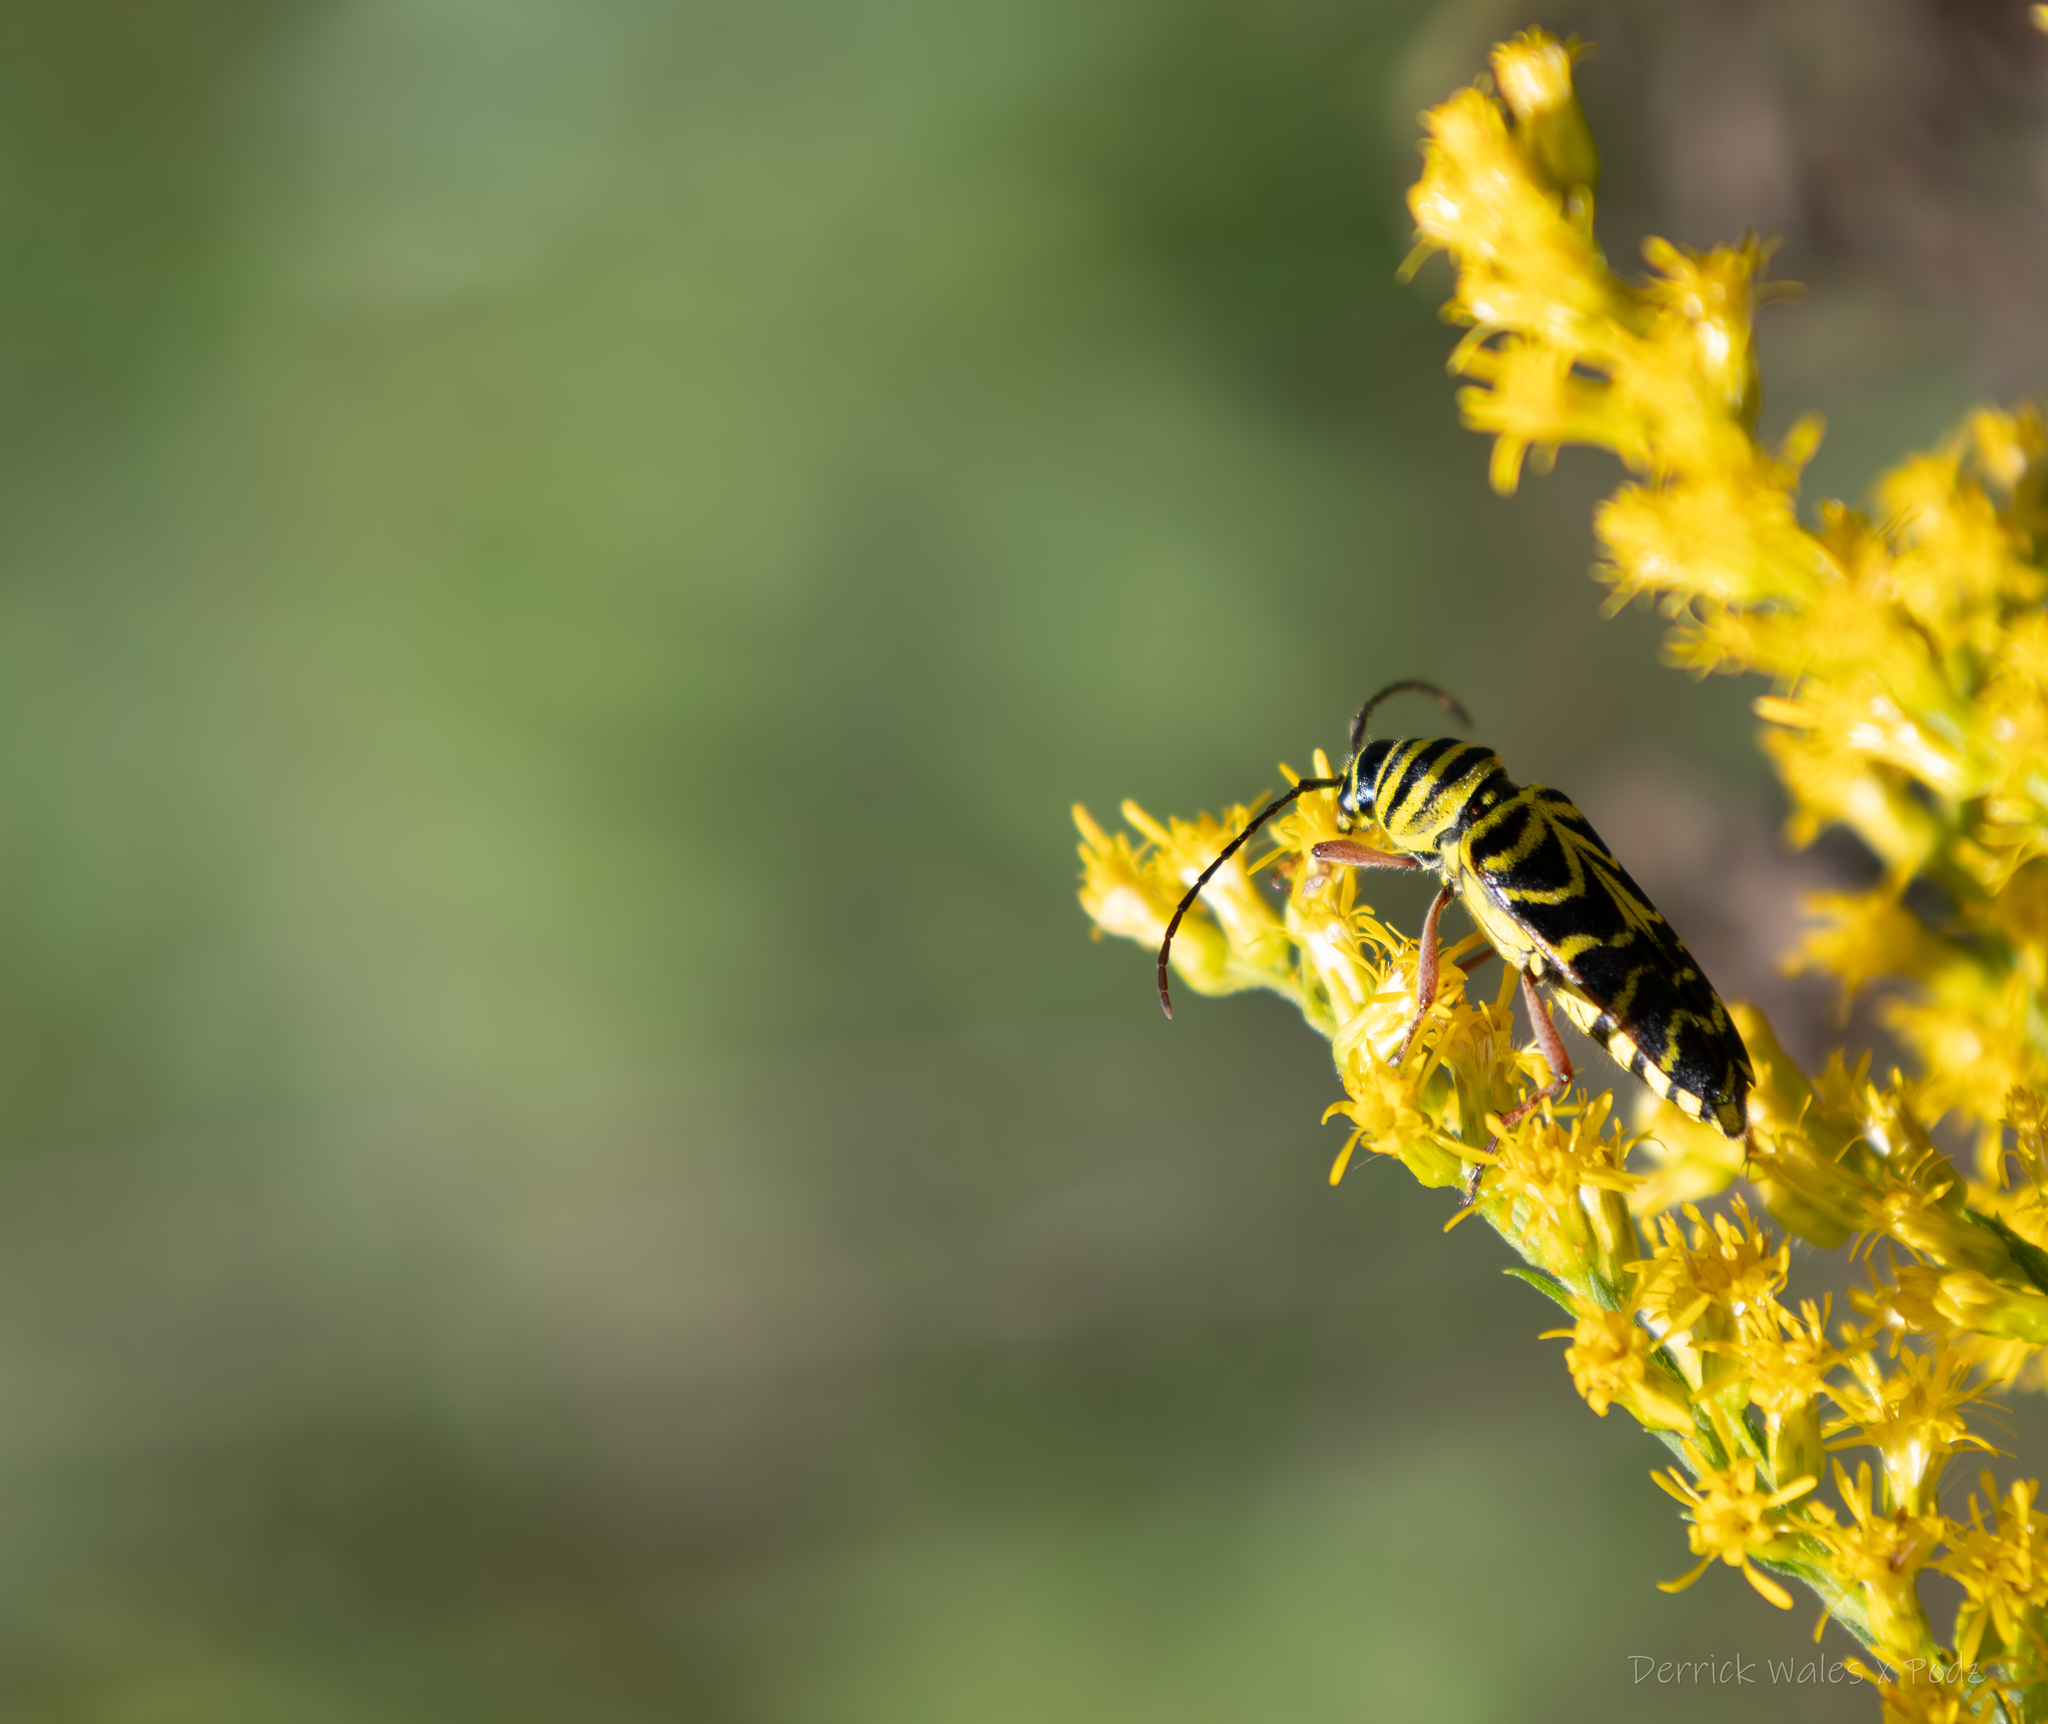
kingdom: Animalia
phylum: Arthropoda
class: Insecta
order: Coleoptera
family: Cerambycidae
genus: Megacyllene
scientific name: Megacyllene robiniae
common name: Locust borer
